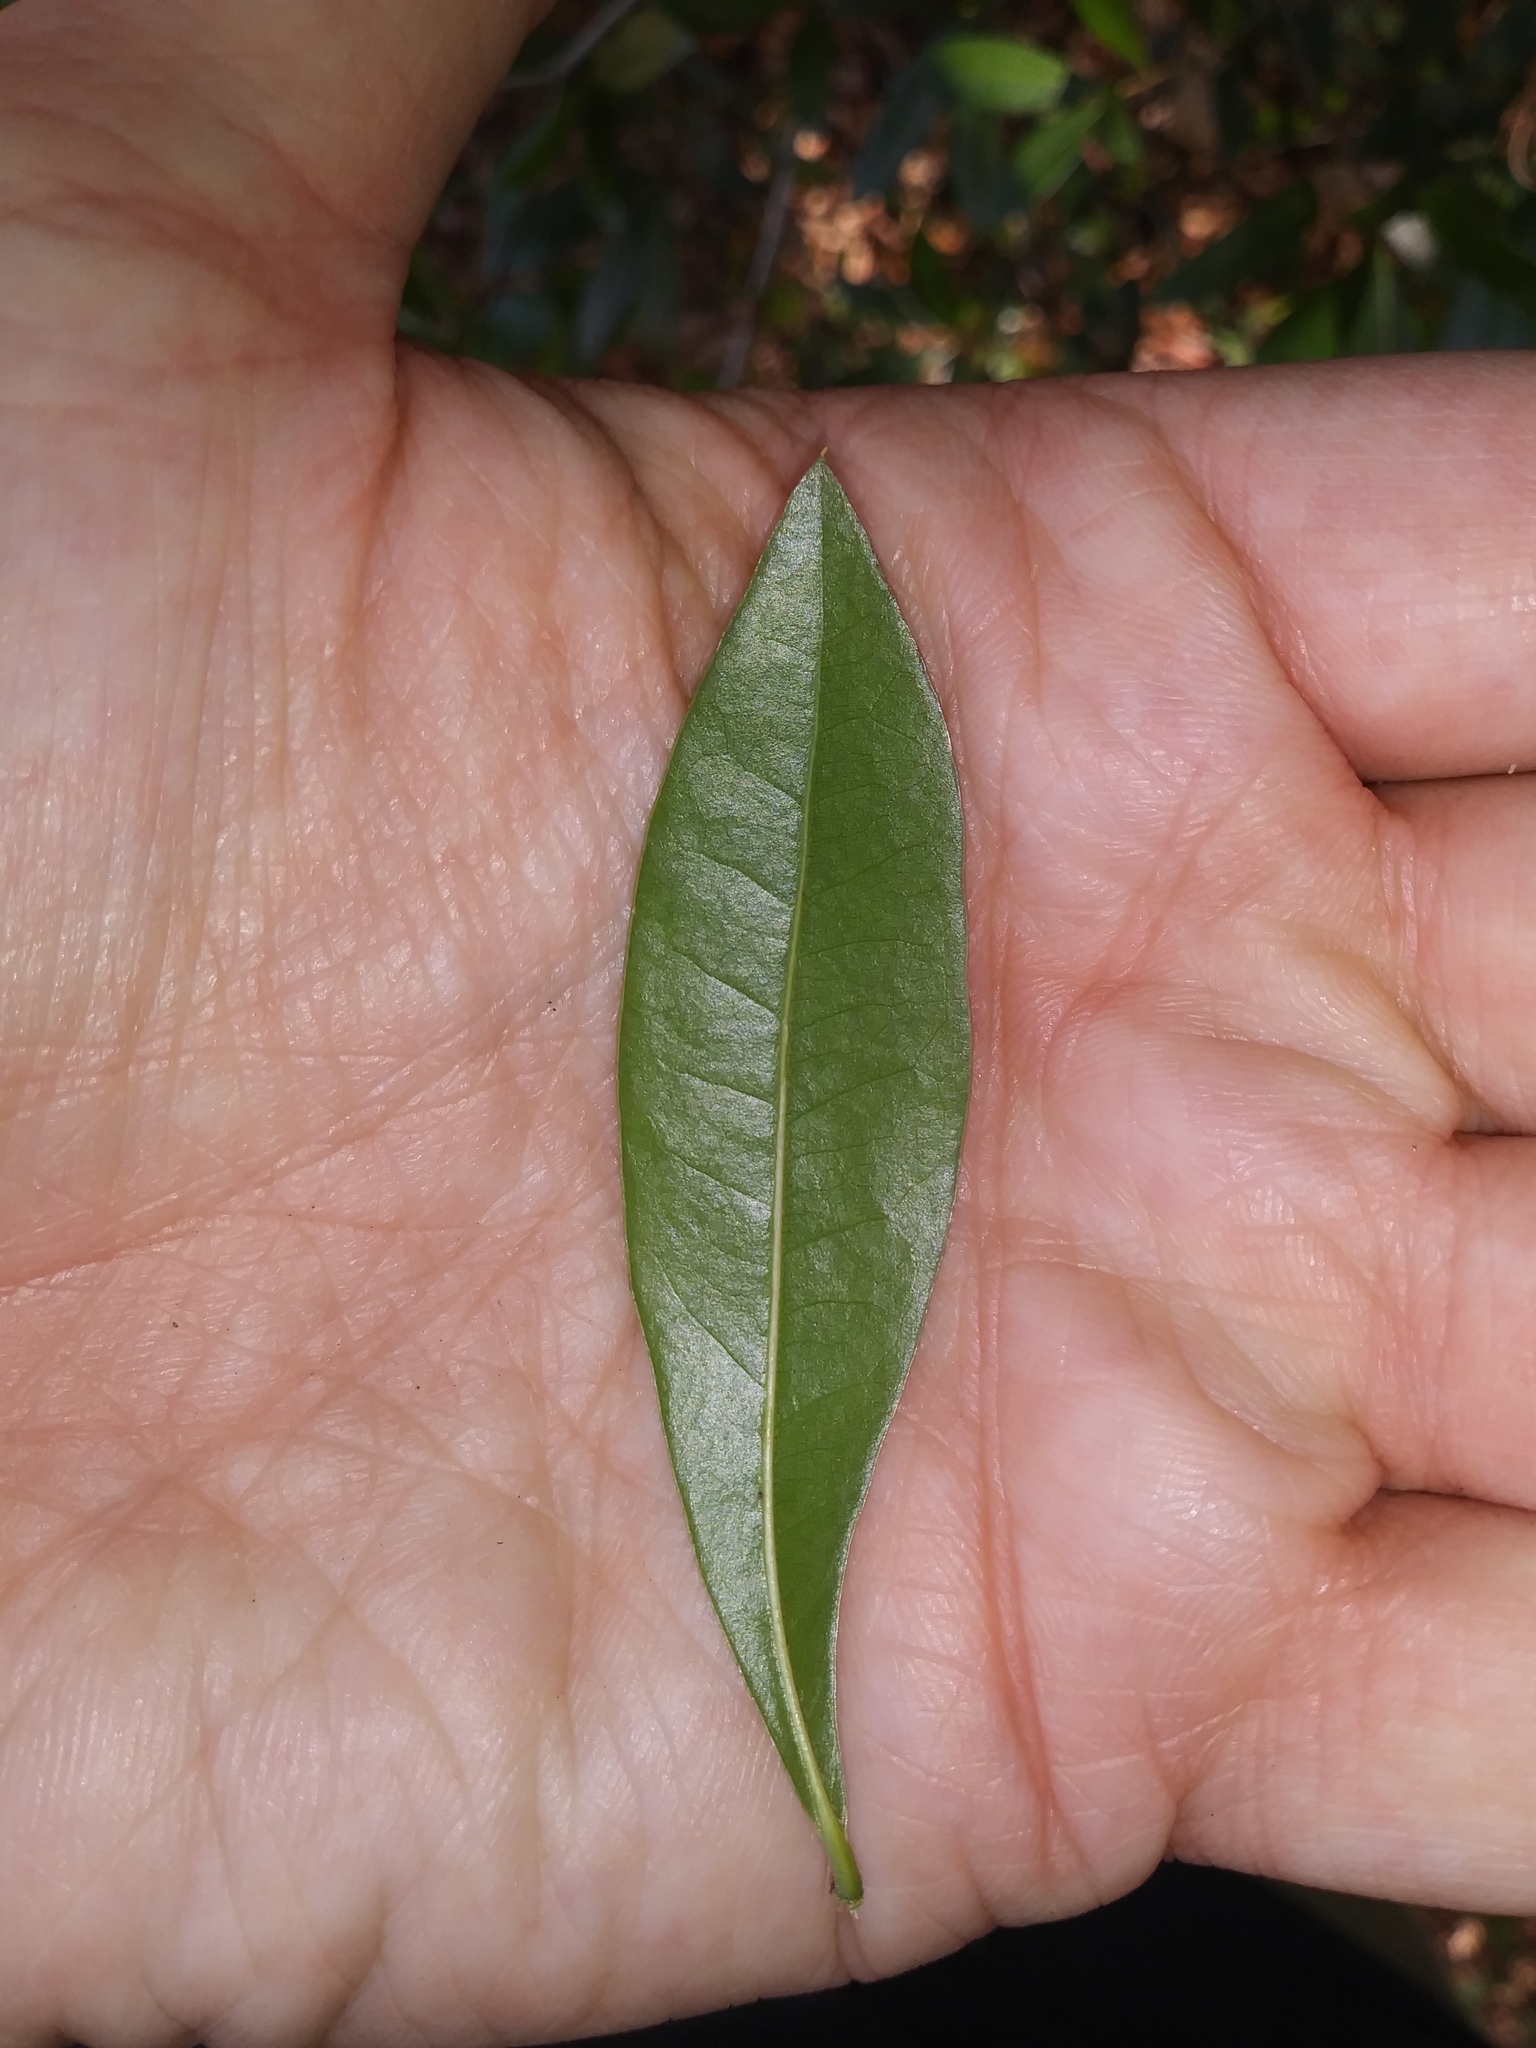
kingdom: Plantae
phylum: Tracheophyta
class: Magnoliopsida
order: Fagales
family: Fagaceae
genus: Quercus
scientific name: Quercus hemisphaerica
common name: Darlington oak
